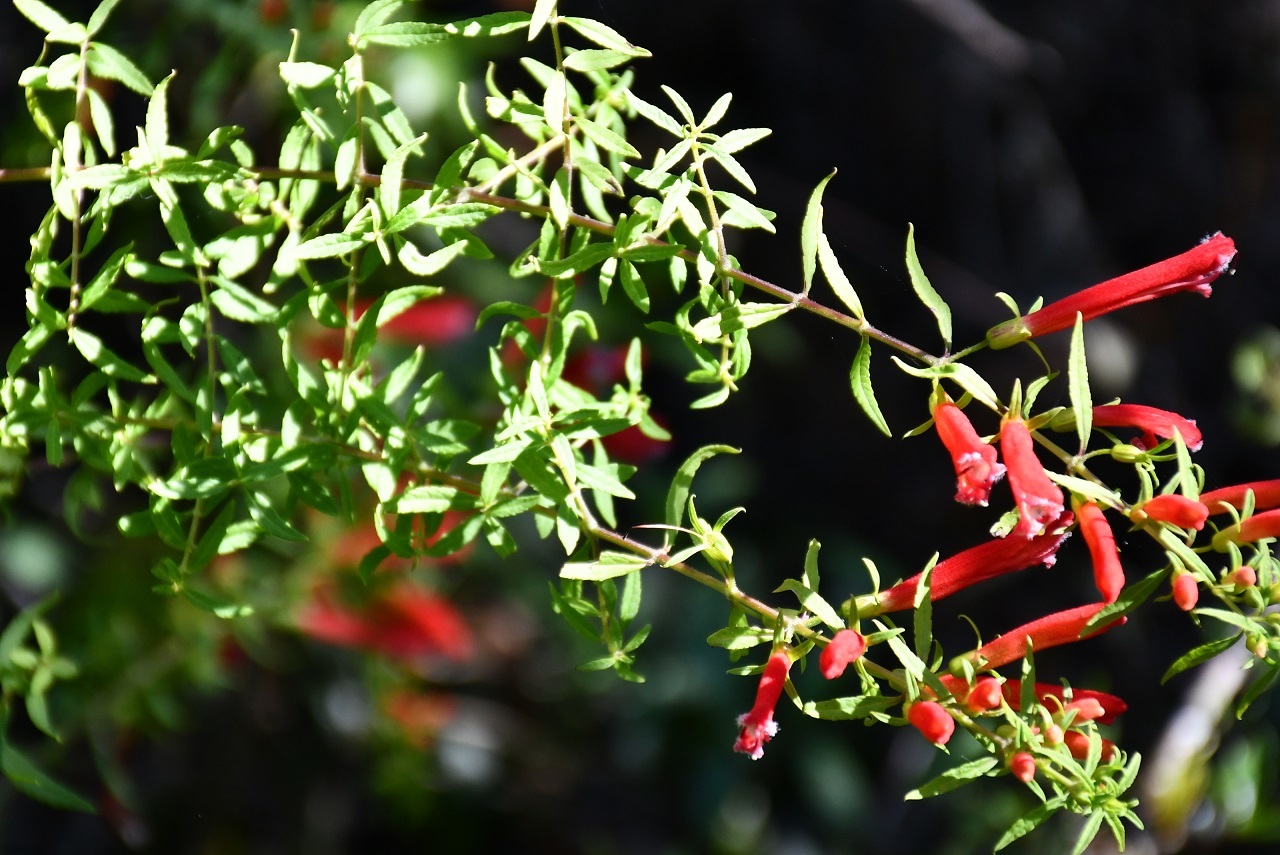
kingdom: Plantae
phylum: Tracheophyta
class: Magnoliopsida
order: Lamiales
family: Orobanchaceae
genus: Lamourouxia
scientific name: Lamourouxia lanceolata
